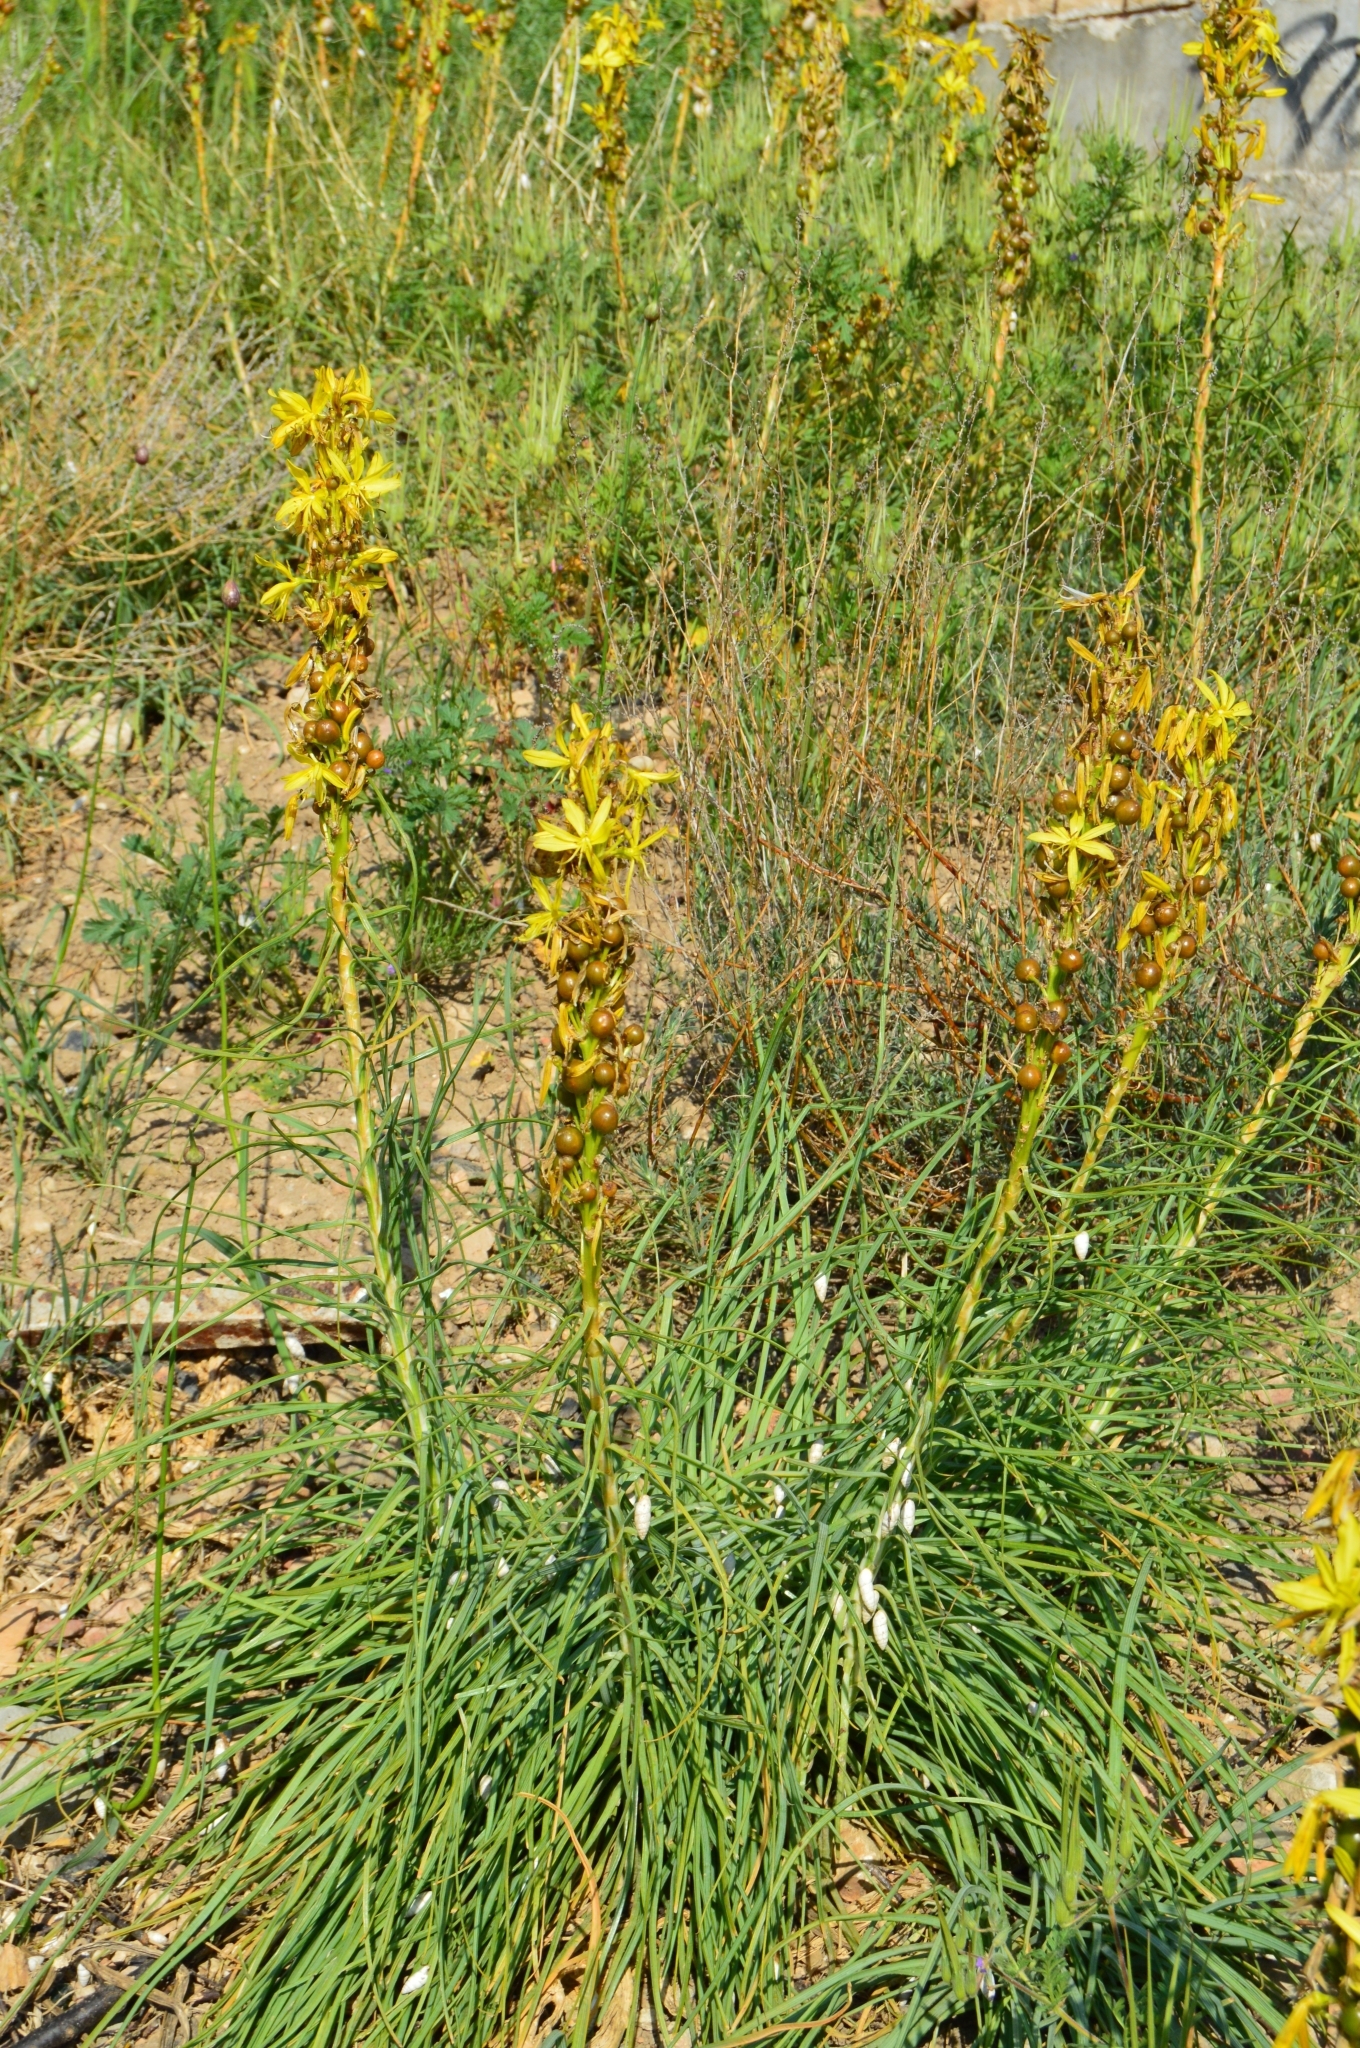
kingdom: Plantae
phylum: Tracheophyta
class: Liliopsida
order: Asparagales
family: Asphodelaceae
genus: Asphodeline
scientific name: Asphodeline lutea
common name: Yellow asphodel
